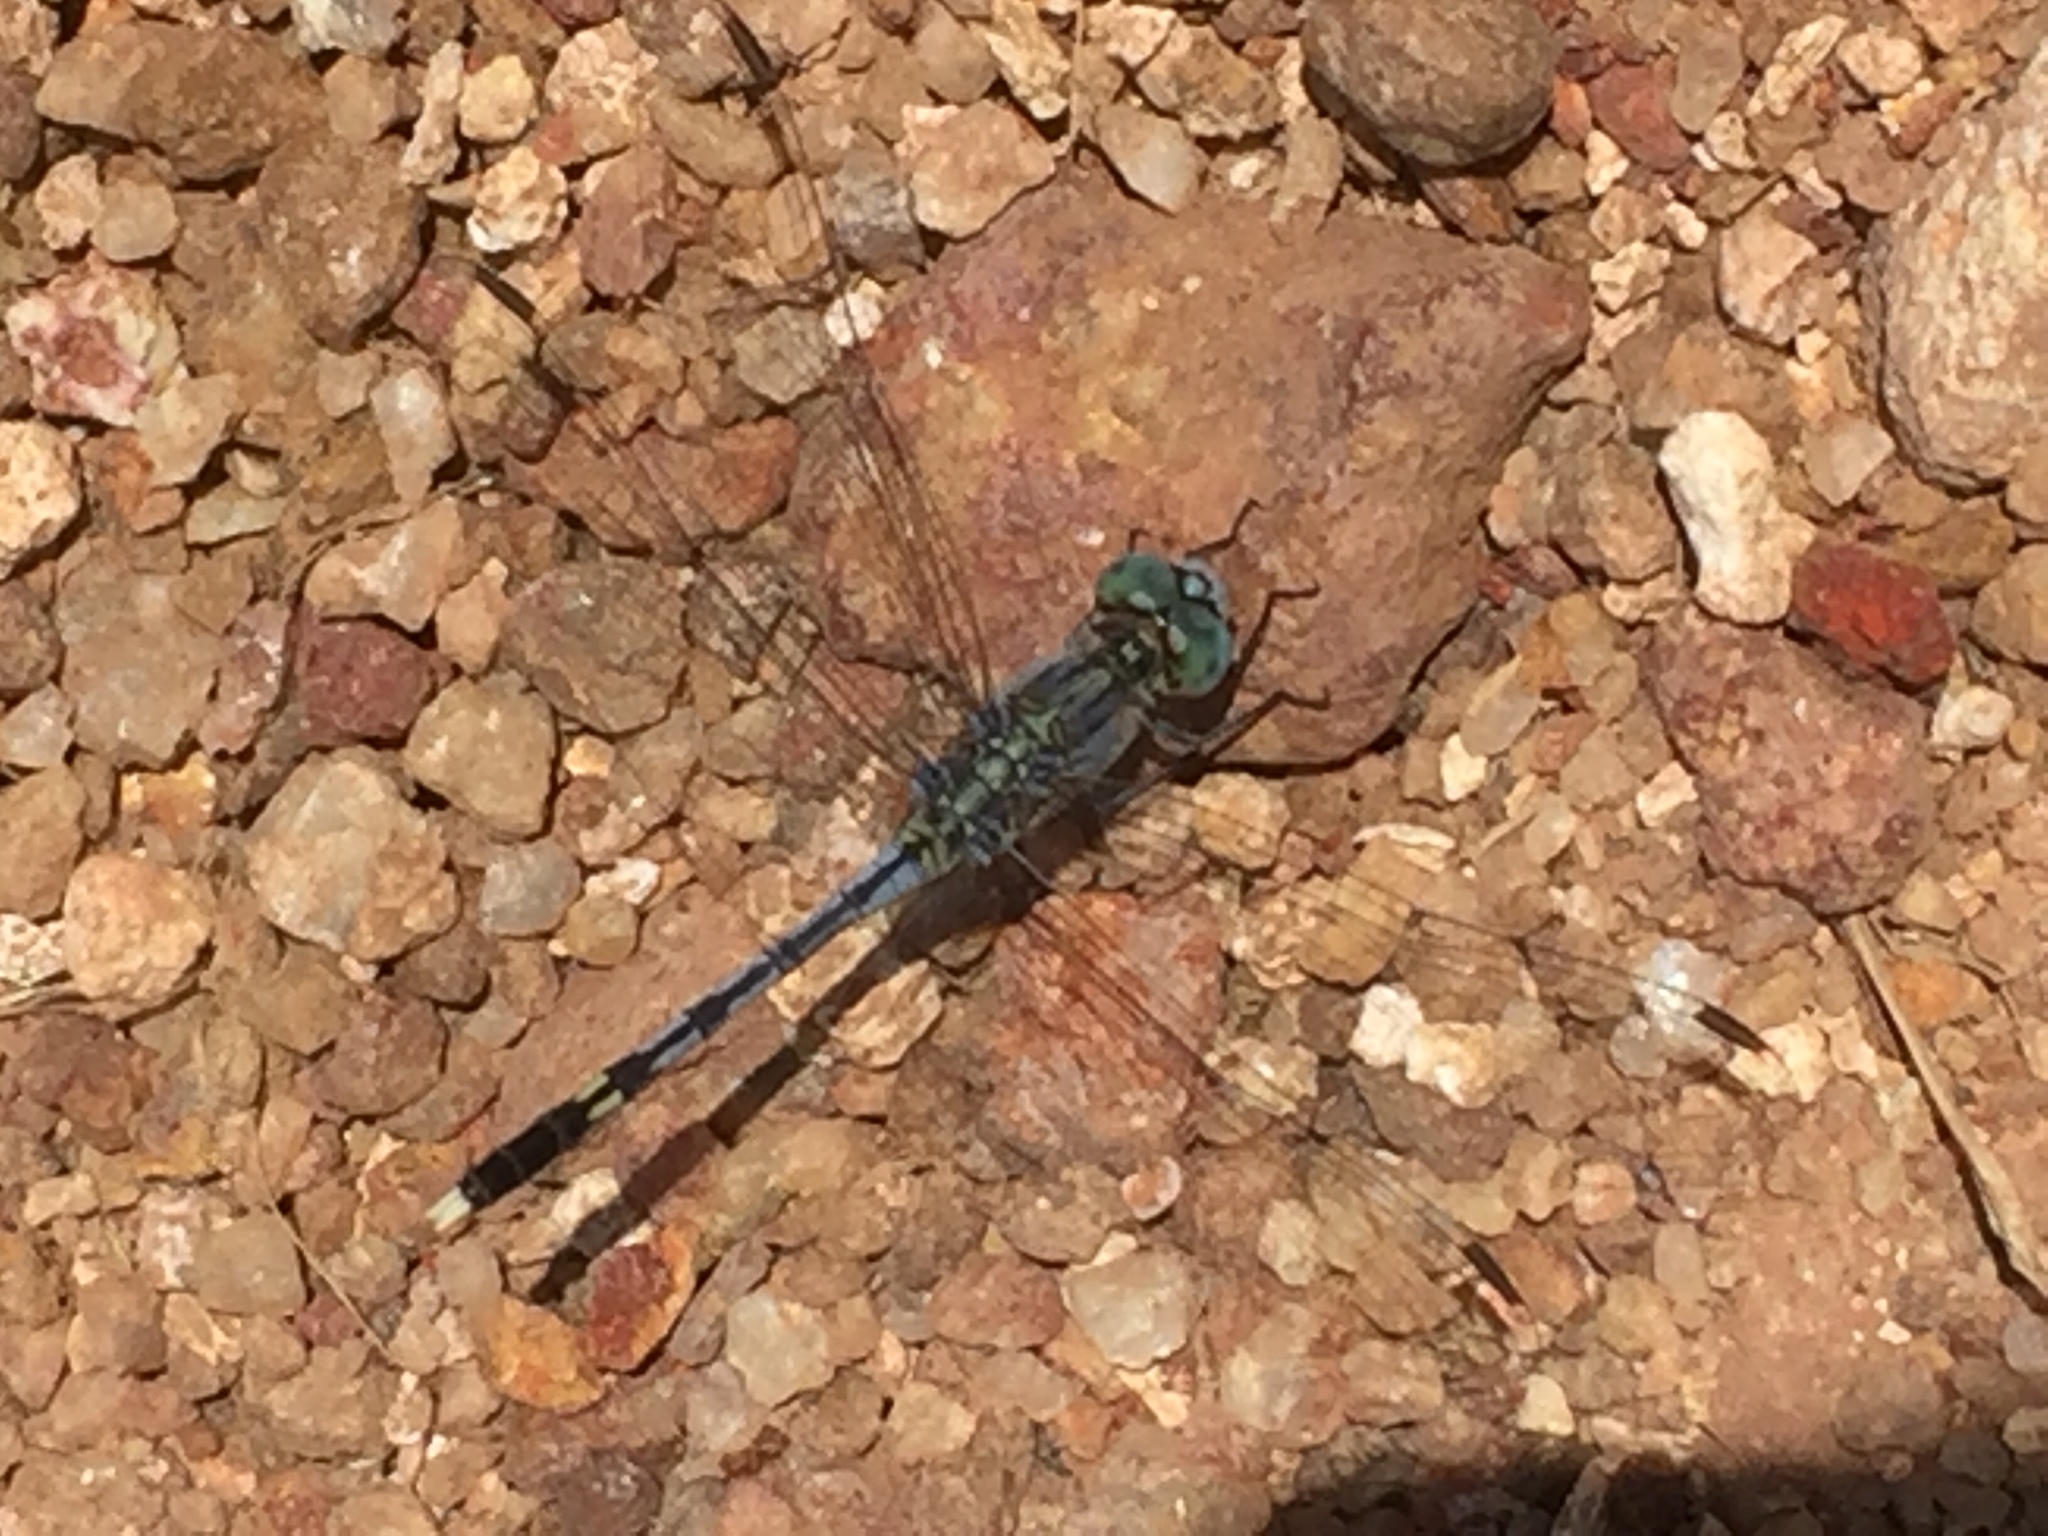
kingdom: Animalia
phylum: Arthropoda
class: Insecta
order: Odonata
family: Libellulidae
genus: Diplacodes
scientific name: Diplacodes trivialis
